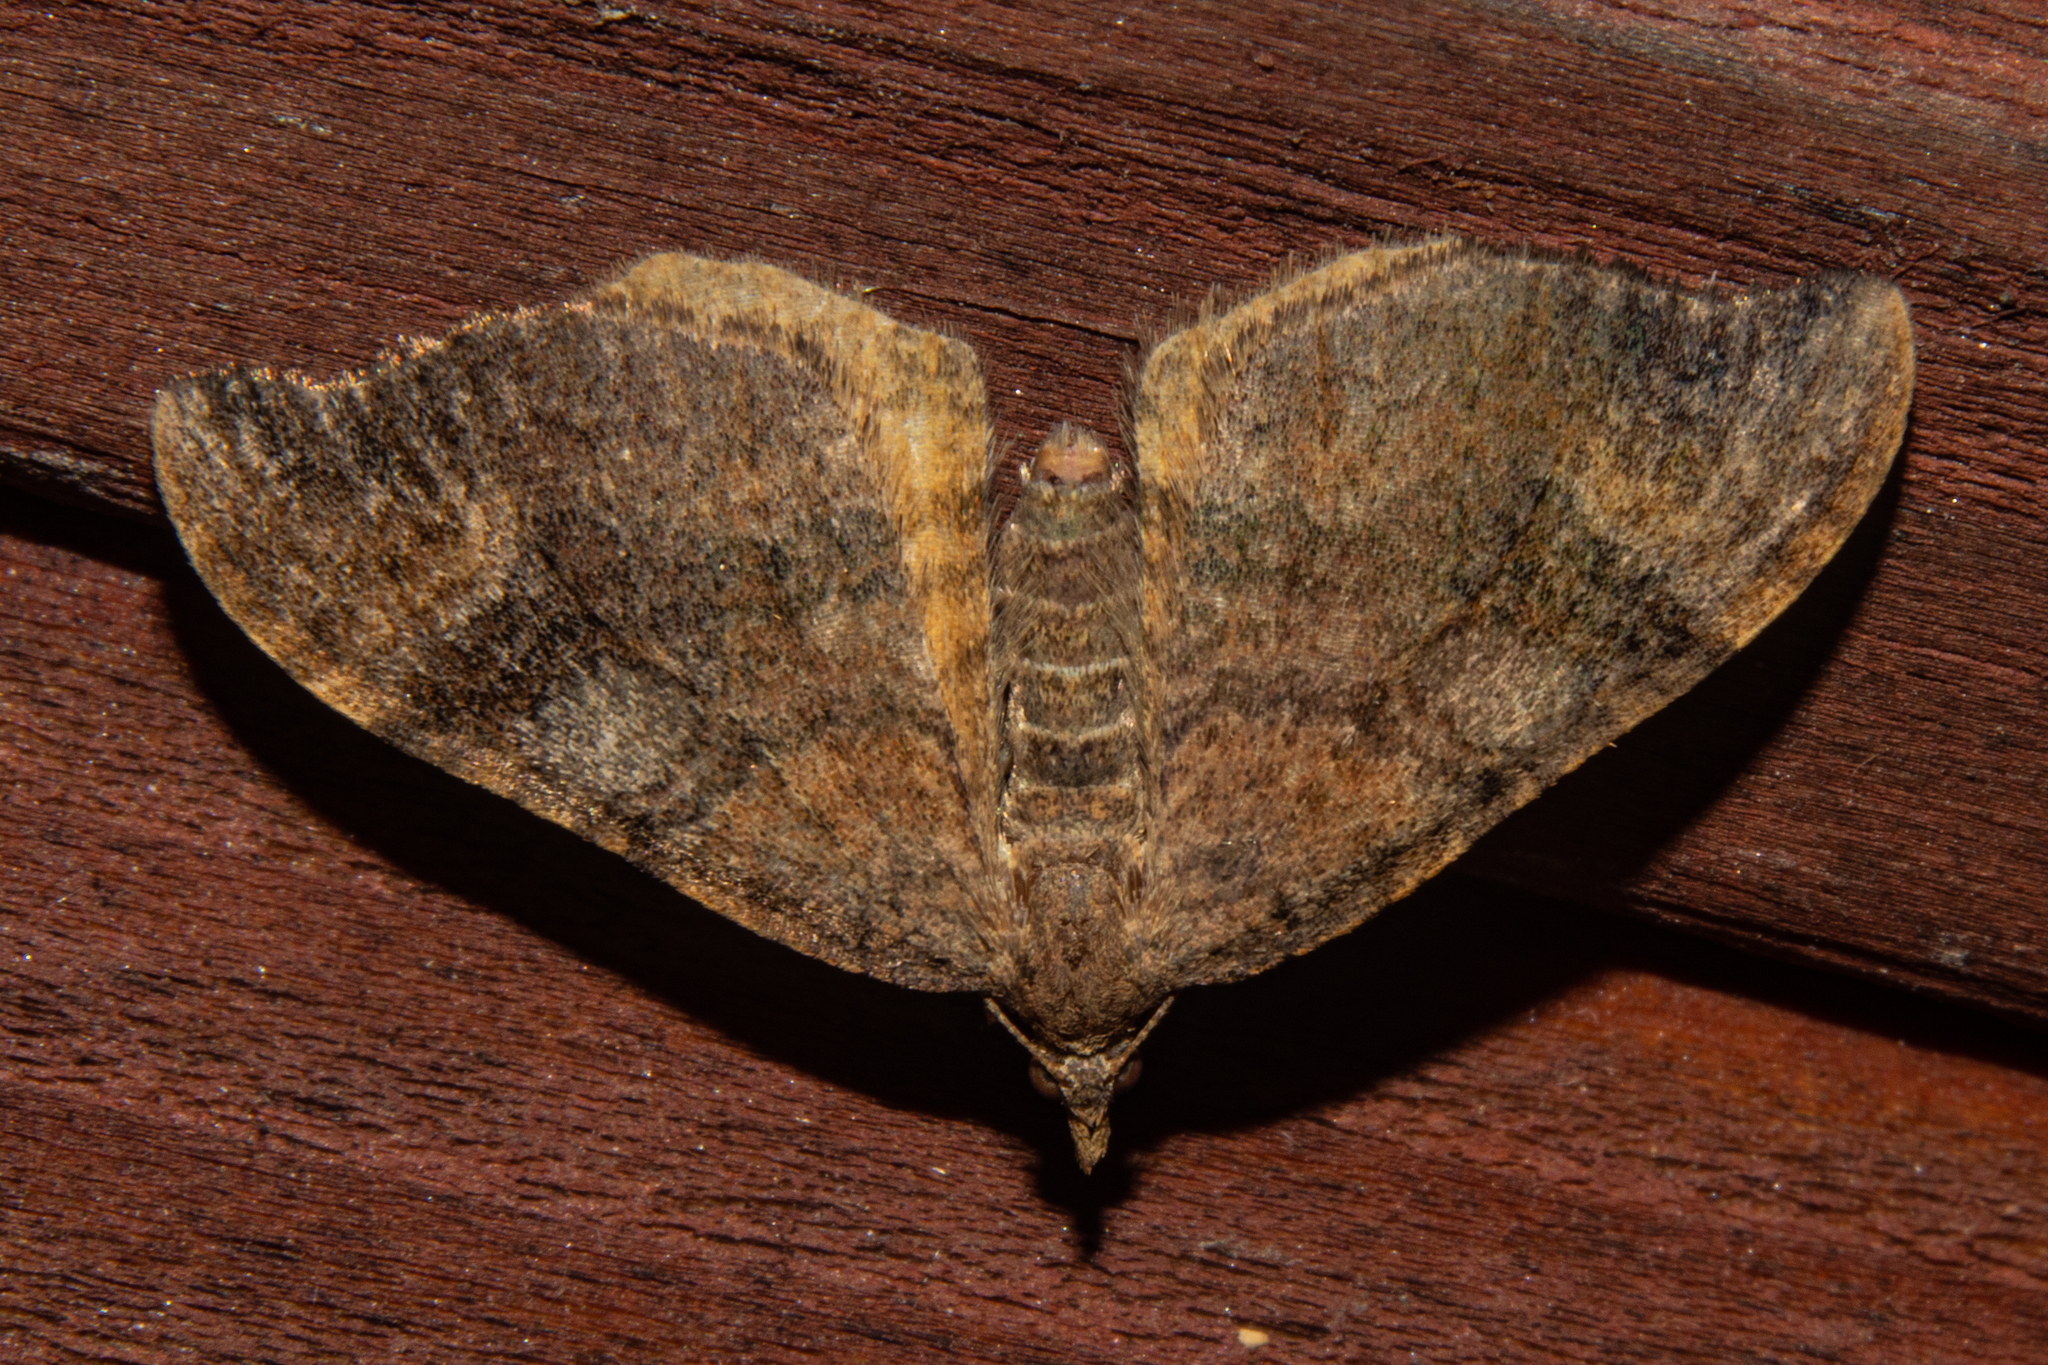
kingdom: Animalia
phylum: Arthropoda
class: Insecta
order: Lepidoptera
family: Geometridae
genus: Homodotis
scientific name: Homodotis megaspilata
